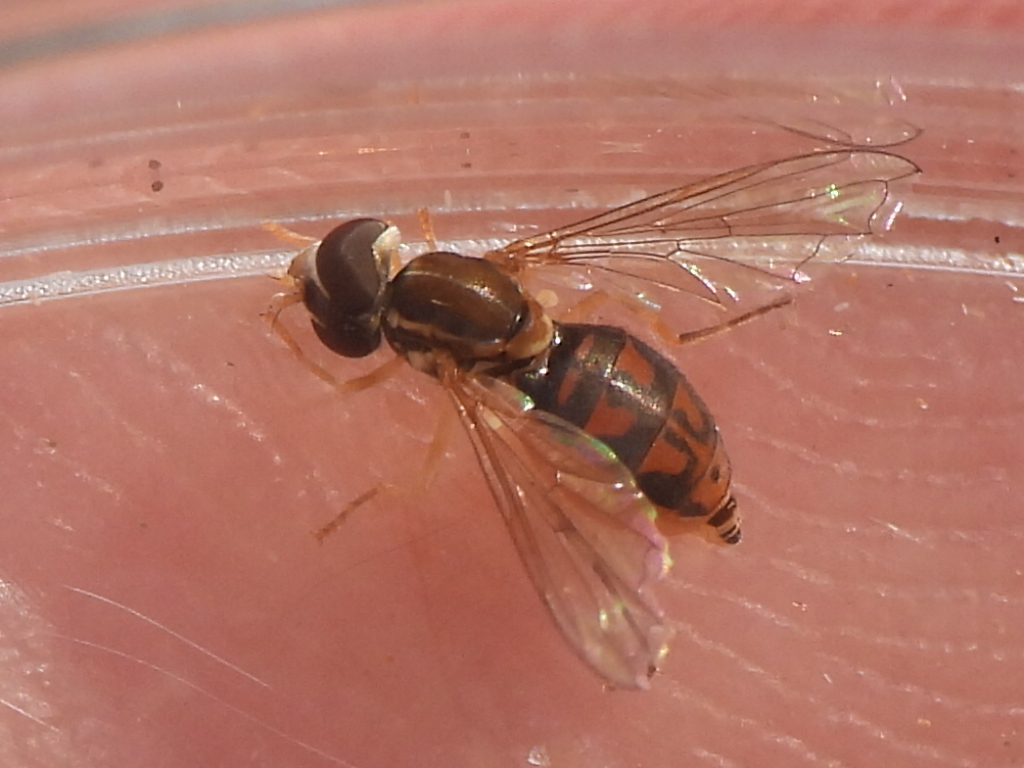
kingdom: Animalia
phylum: Arthropoda
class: Insecta
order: Diptera
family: Syrphidae
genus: Toxomerus
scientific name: Toxomerus marginatus
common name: Syrphid fly
